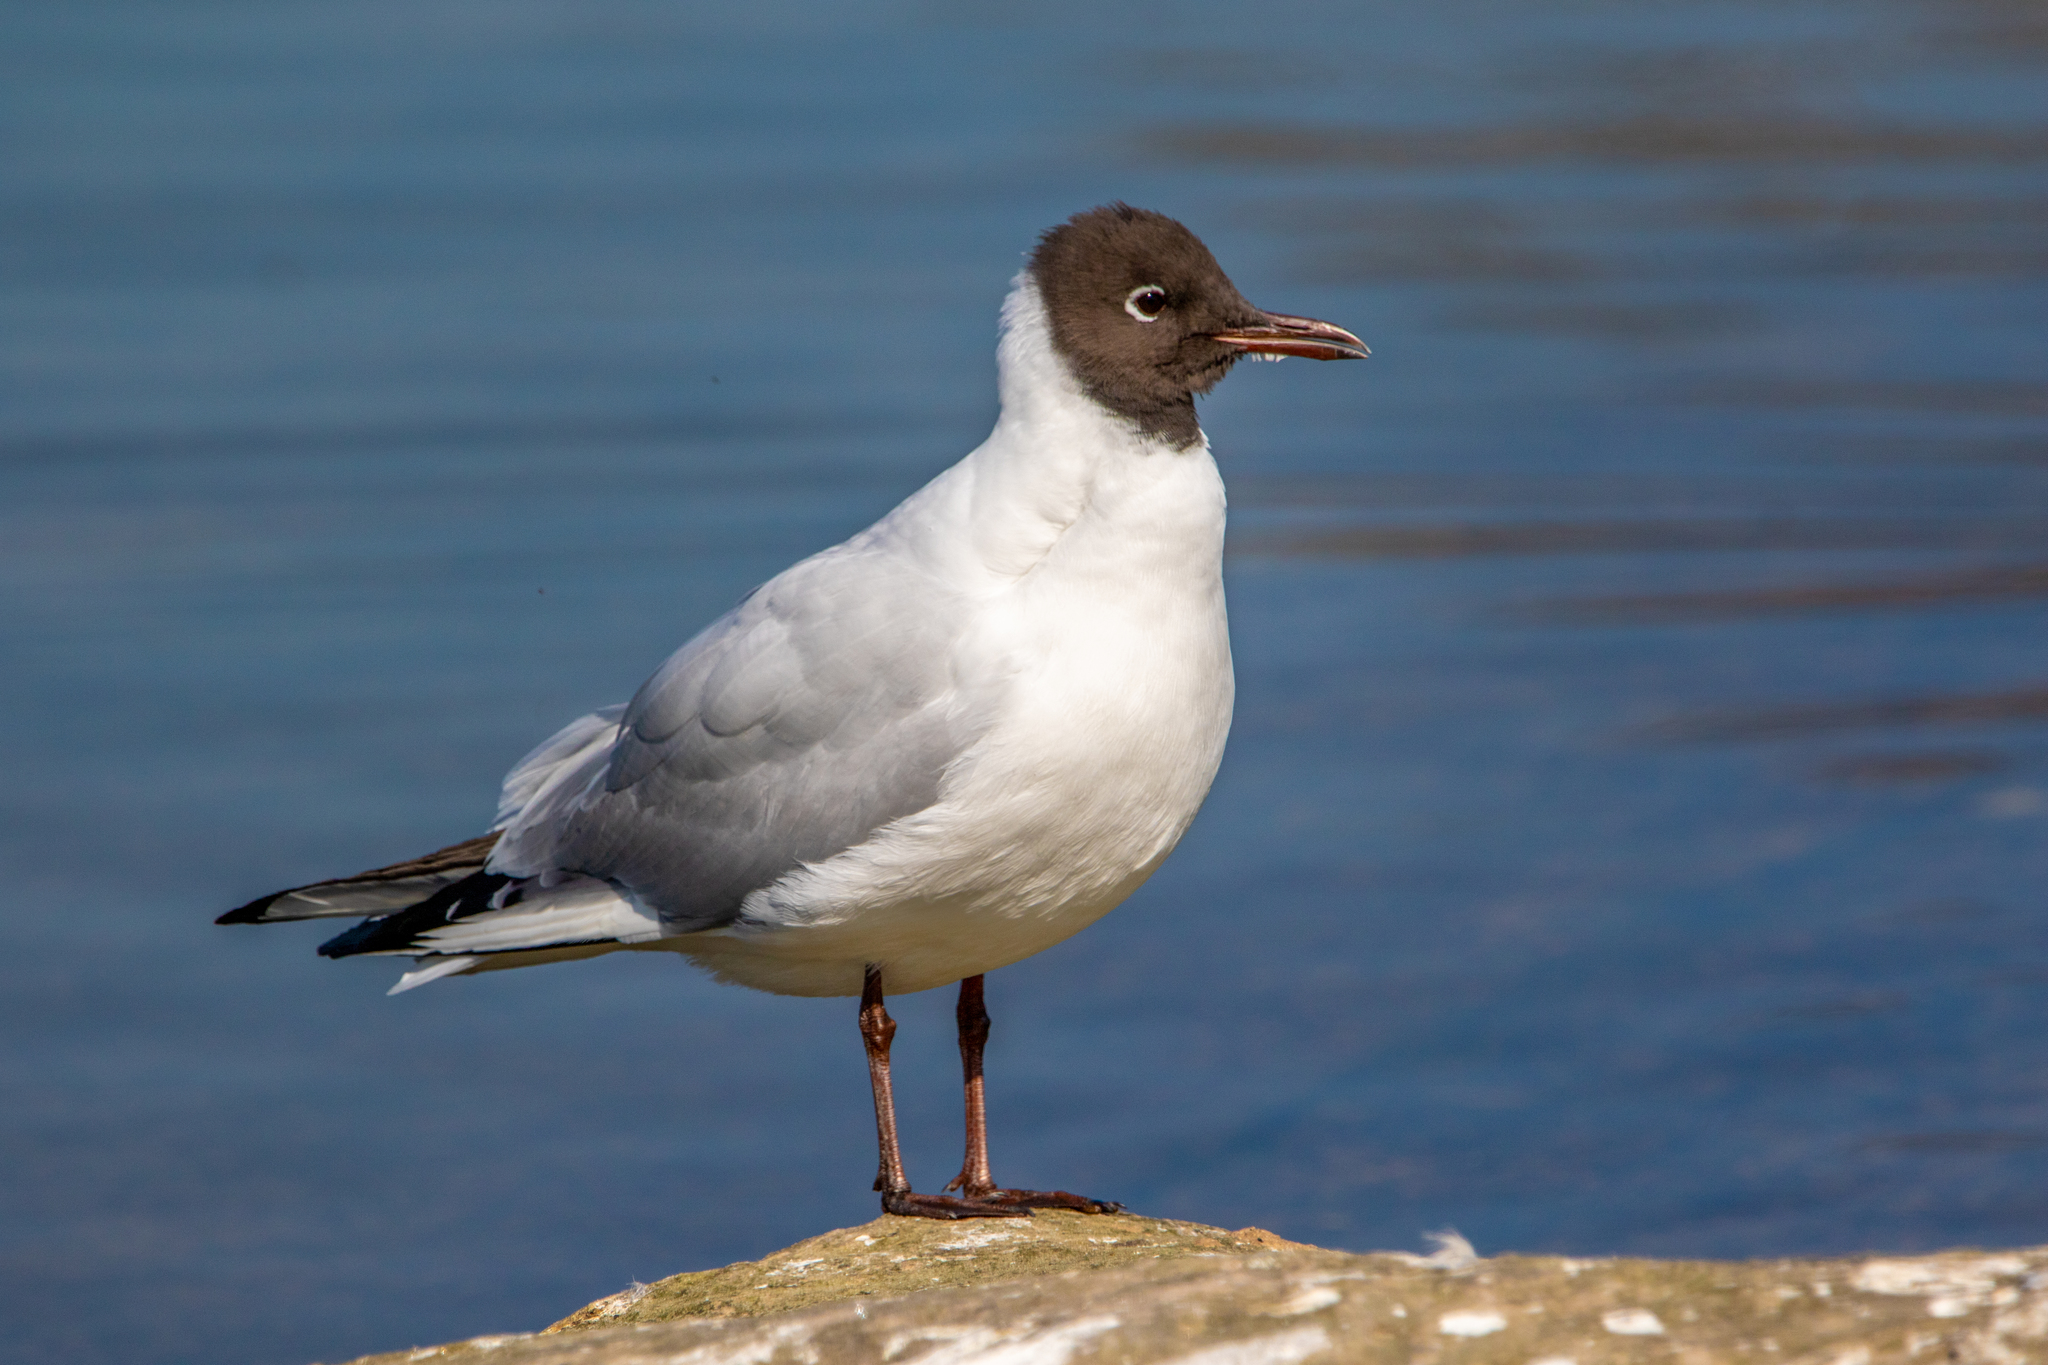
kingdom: Animalia
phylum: Chordata
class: Aves
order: Charadriiformes
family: Laridae
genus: Chroicocephalus
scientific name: Chroicocephalus ridibundus
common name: Black-headed gull
